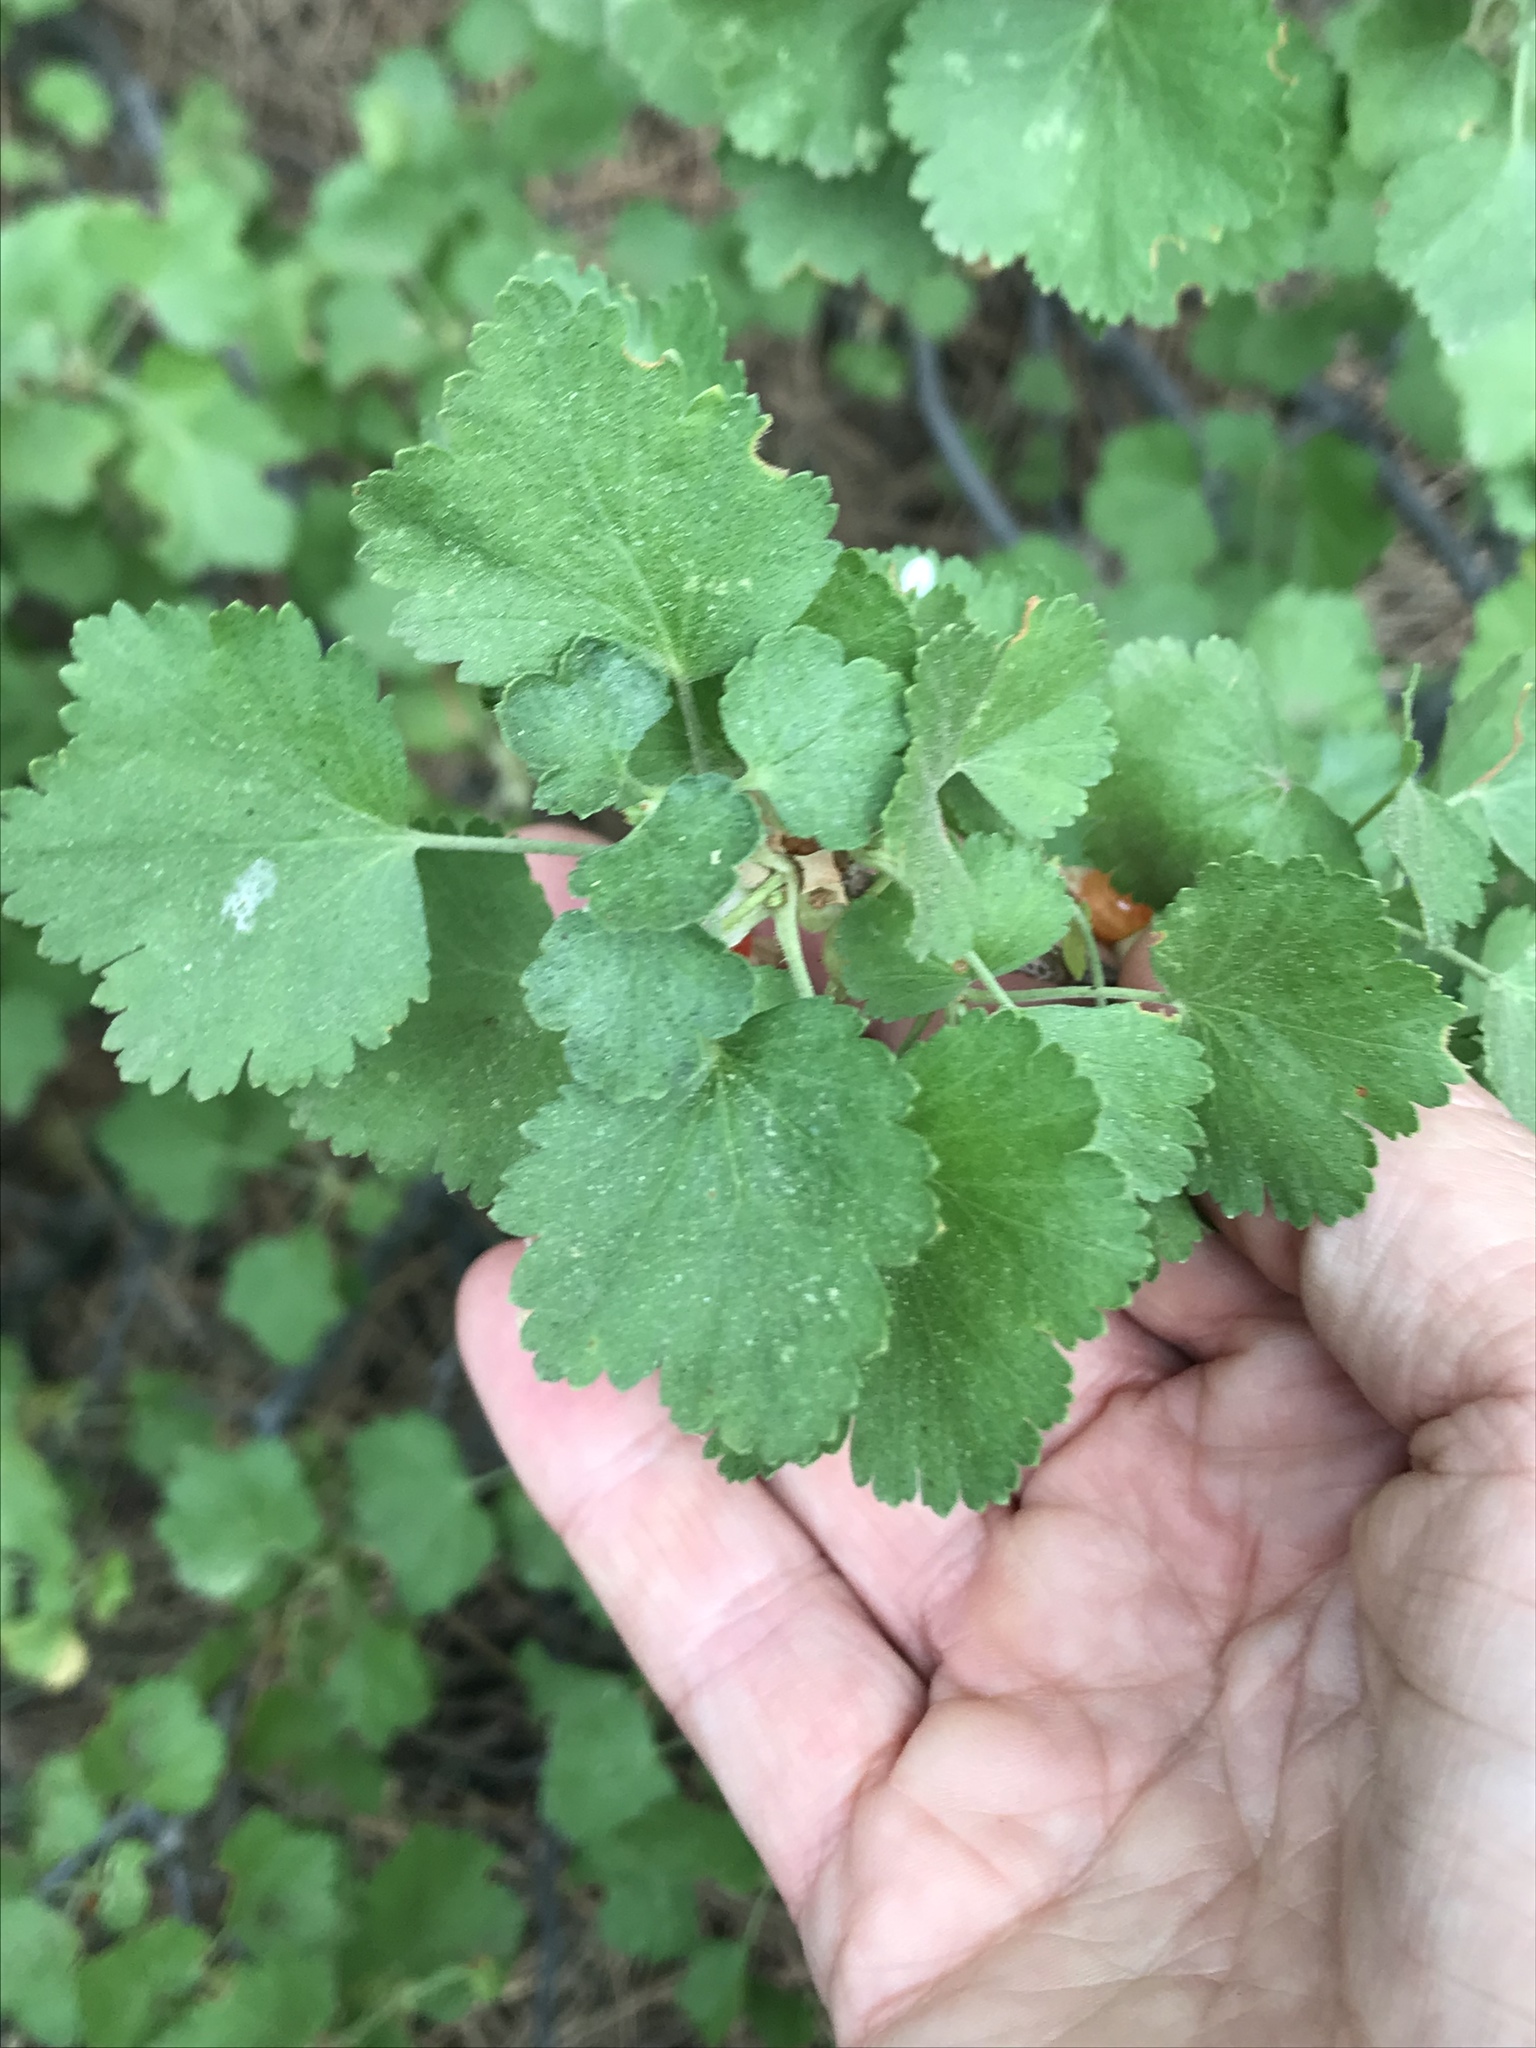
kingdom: Plantae
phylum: Tracheophyta
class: Magnoliopsida
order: Saxifragales
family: Grossulariaceae
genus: Ribes
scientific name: Ribes cereum
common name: Wax currant
